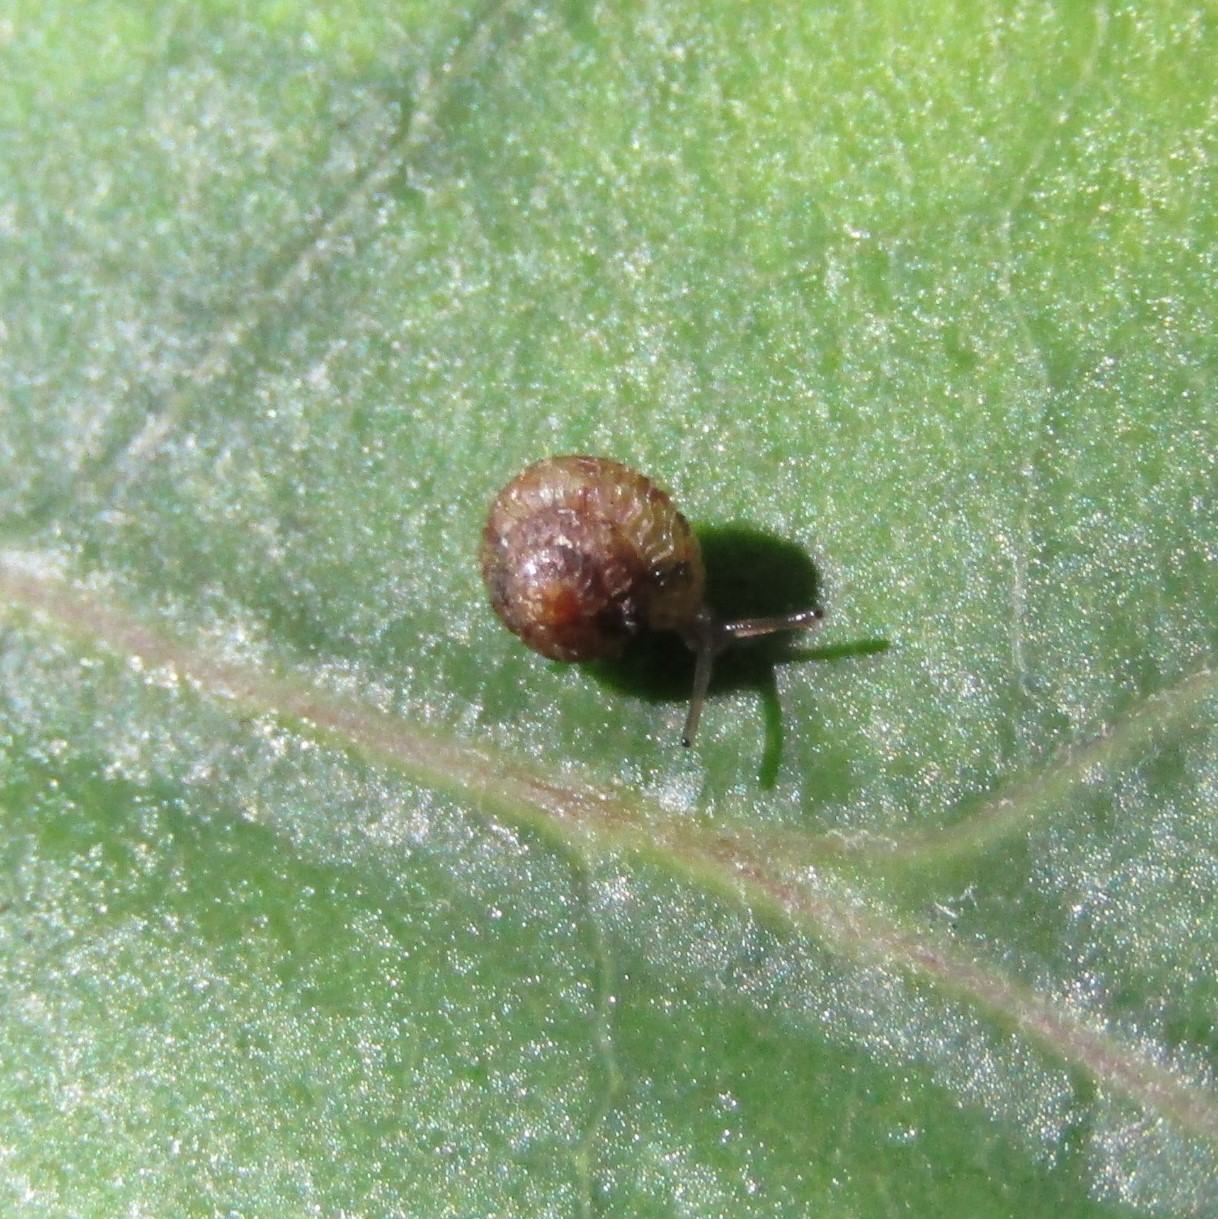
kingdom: Animalia
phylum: Mollusca
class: Gastropoda
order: Stylommatophora
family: Punctidae
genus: Phrixgnathus
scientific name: Phrixgnathus phrynia
